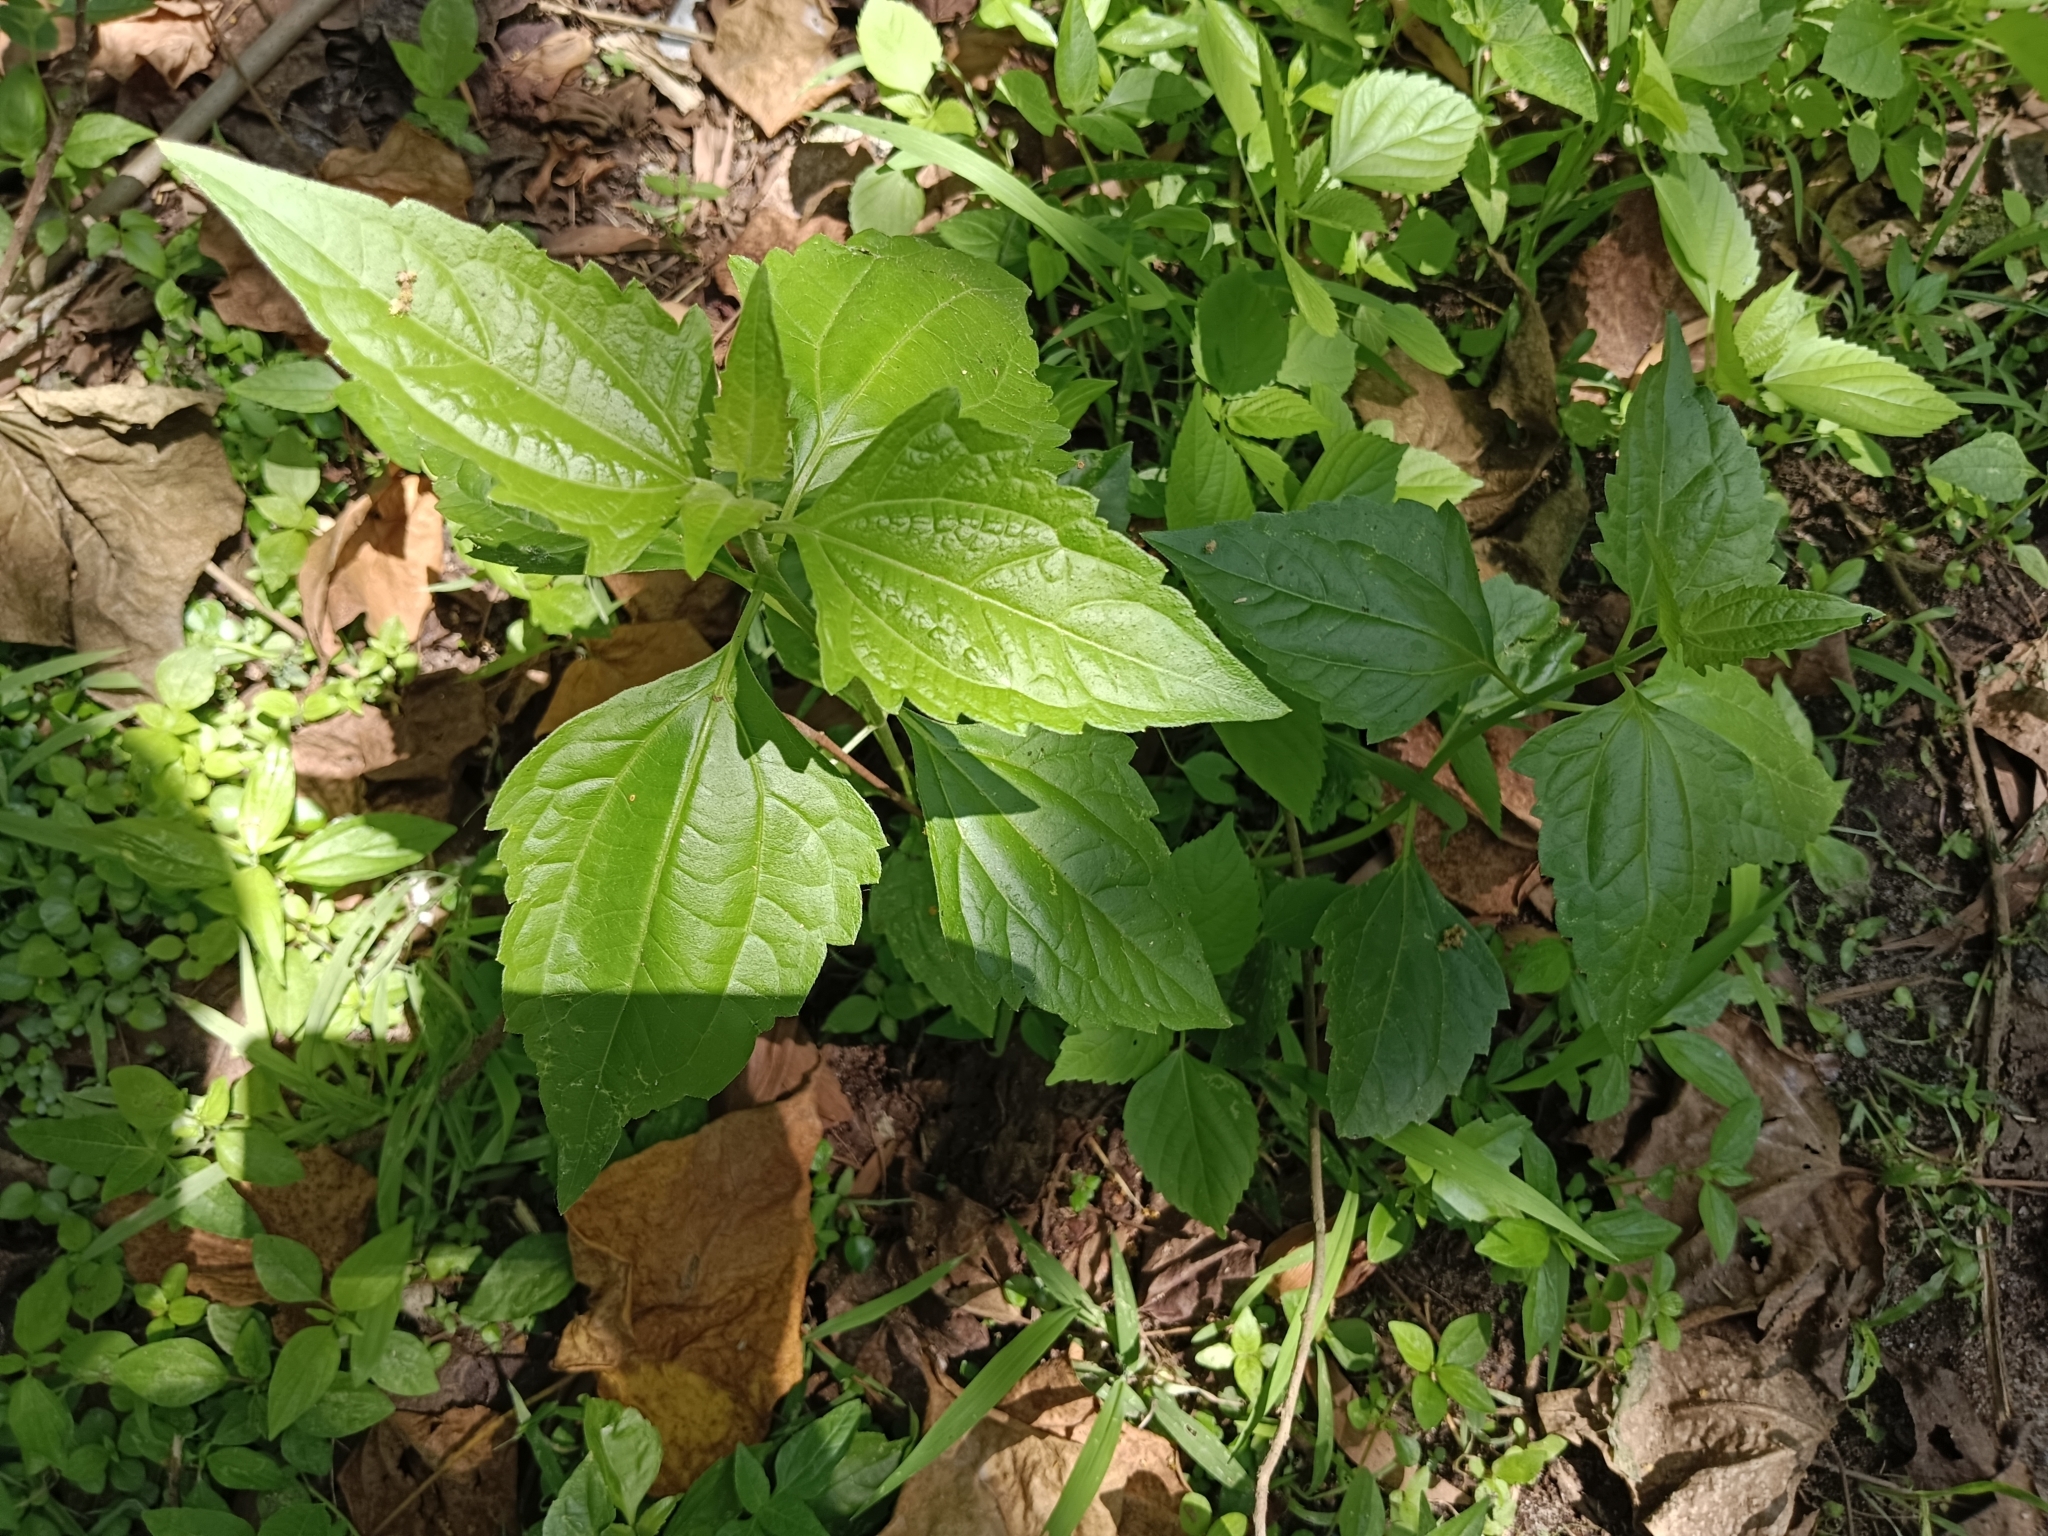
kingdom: Plantae
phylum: Tracheophyta
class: Magnoliopsida
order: Asterales
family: Asteraceae
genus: Chromolaena
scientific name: Chromolaena odorata
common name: Siamweed
